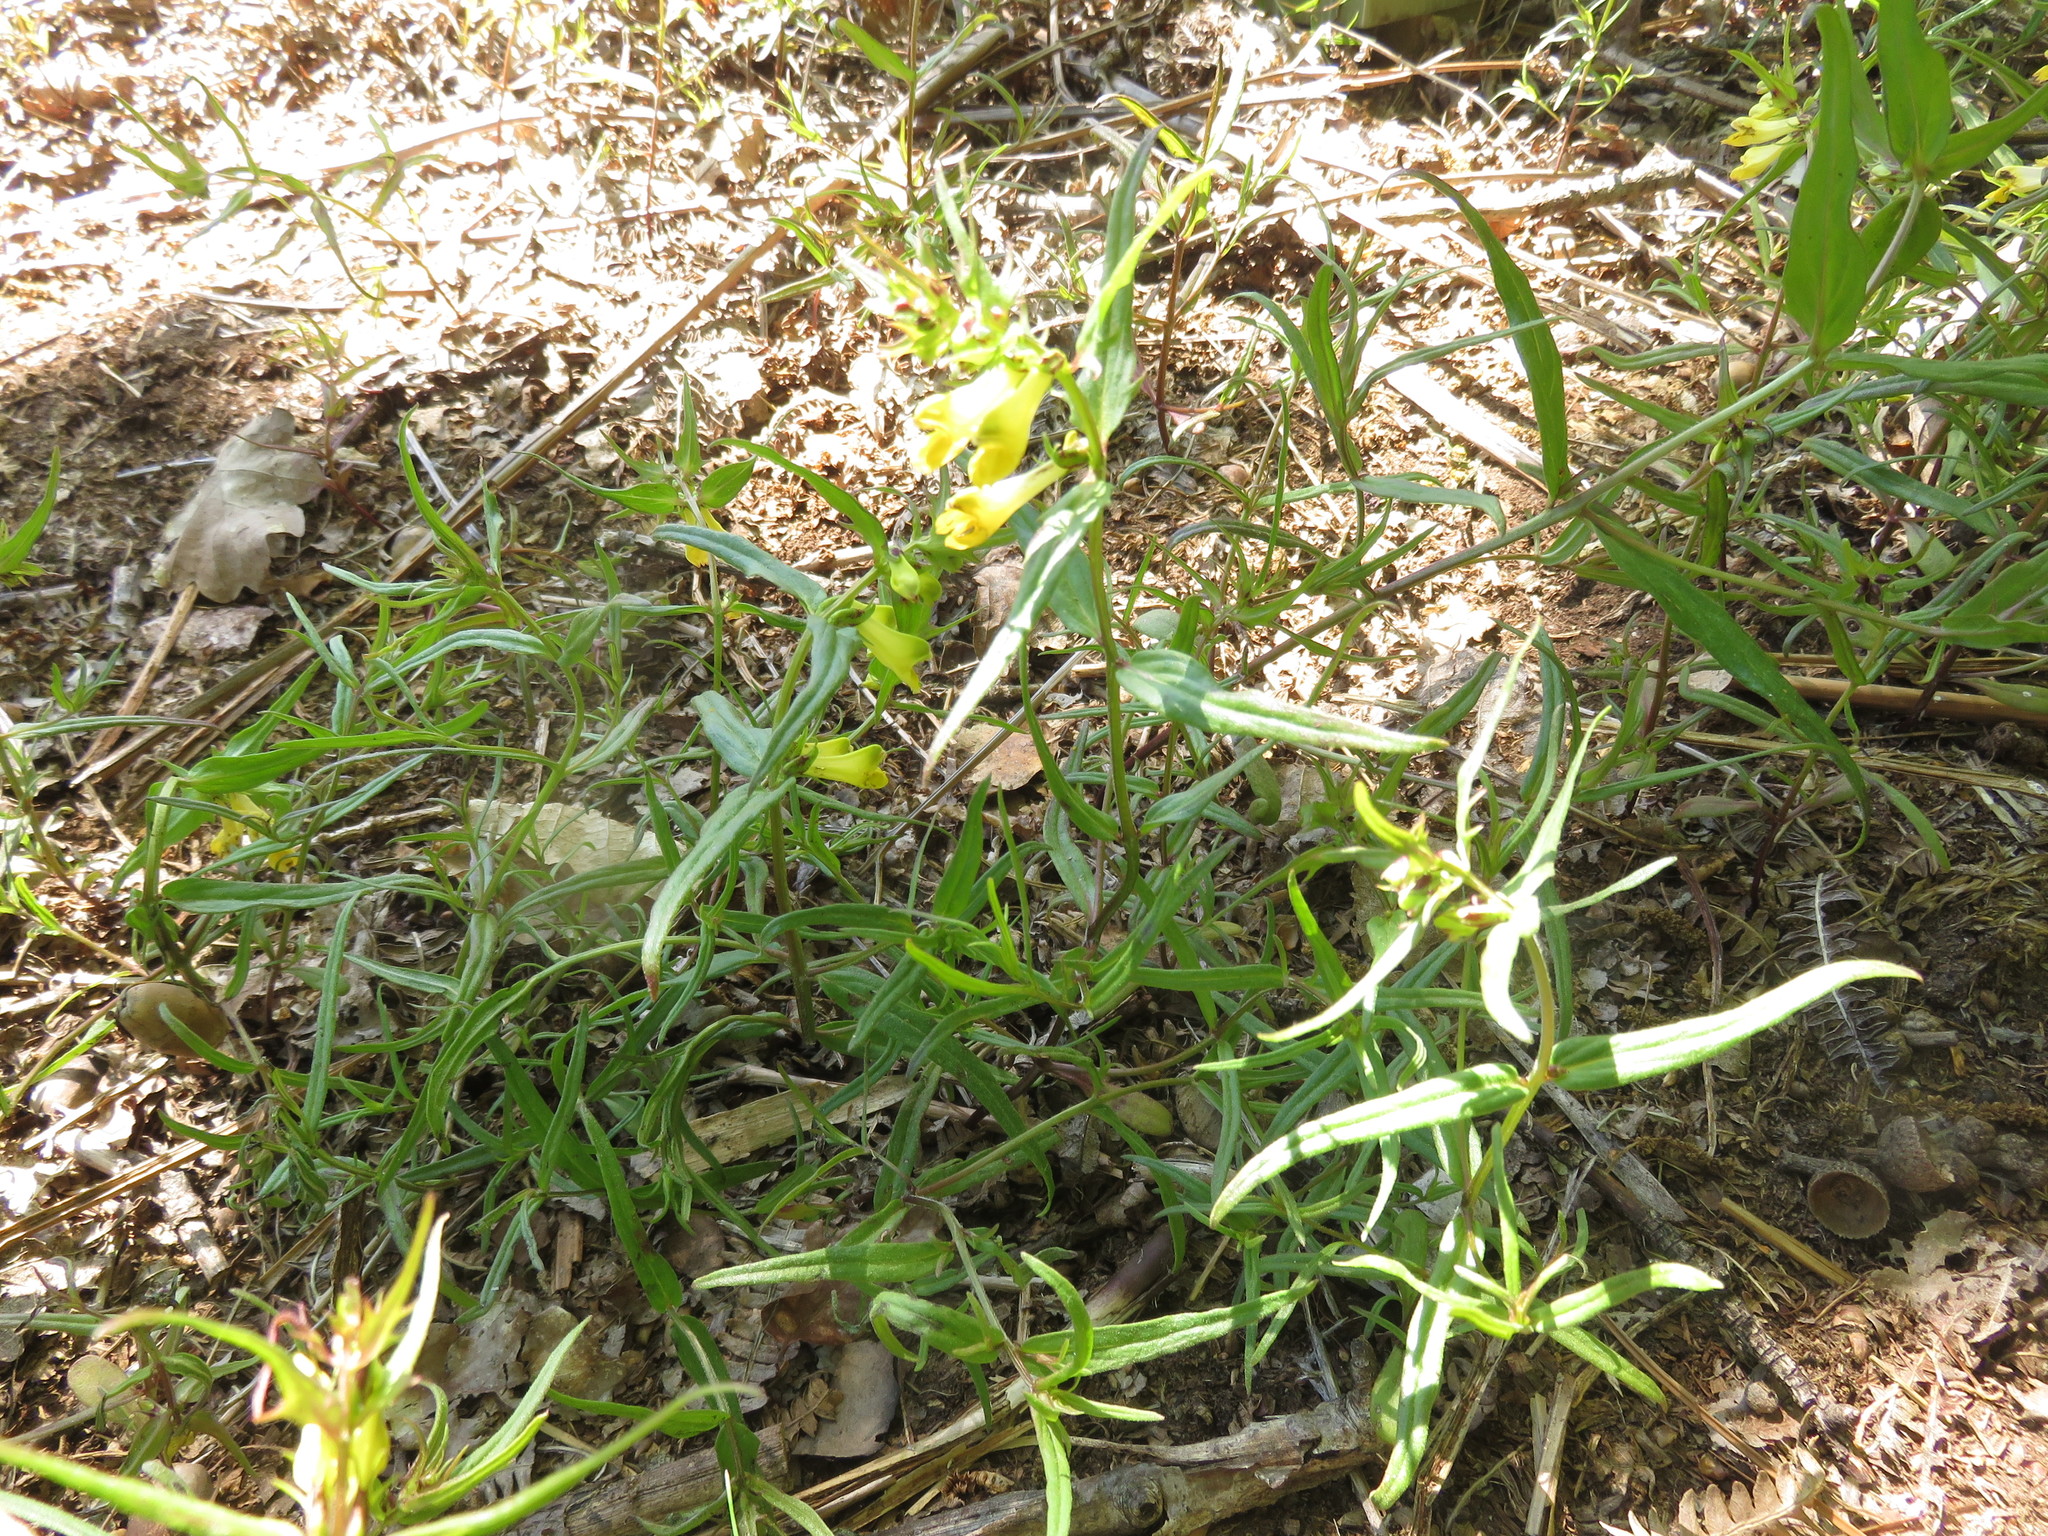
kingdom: Plantae
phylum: Tracheophyta
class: Magnoliopsida
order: Lamiales
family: Orobanchaceae
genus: Melampyrum
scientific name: Melampyrum pratense
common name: Common cow-wheat
